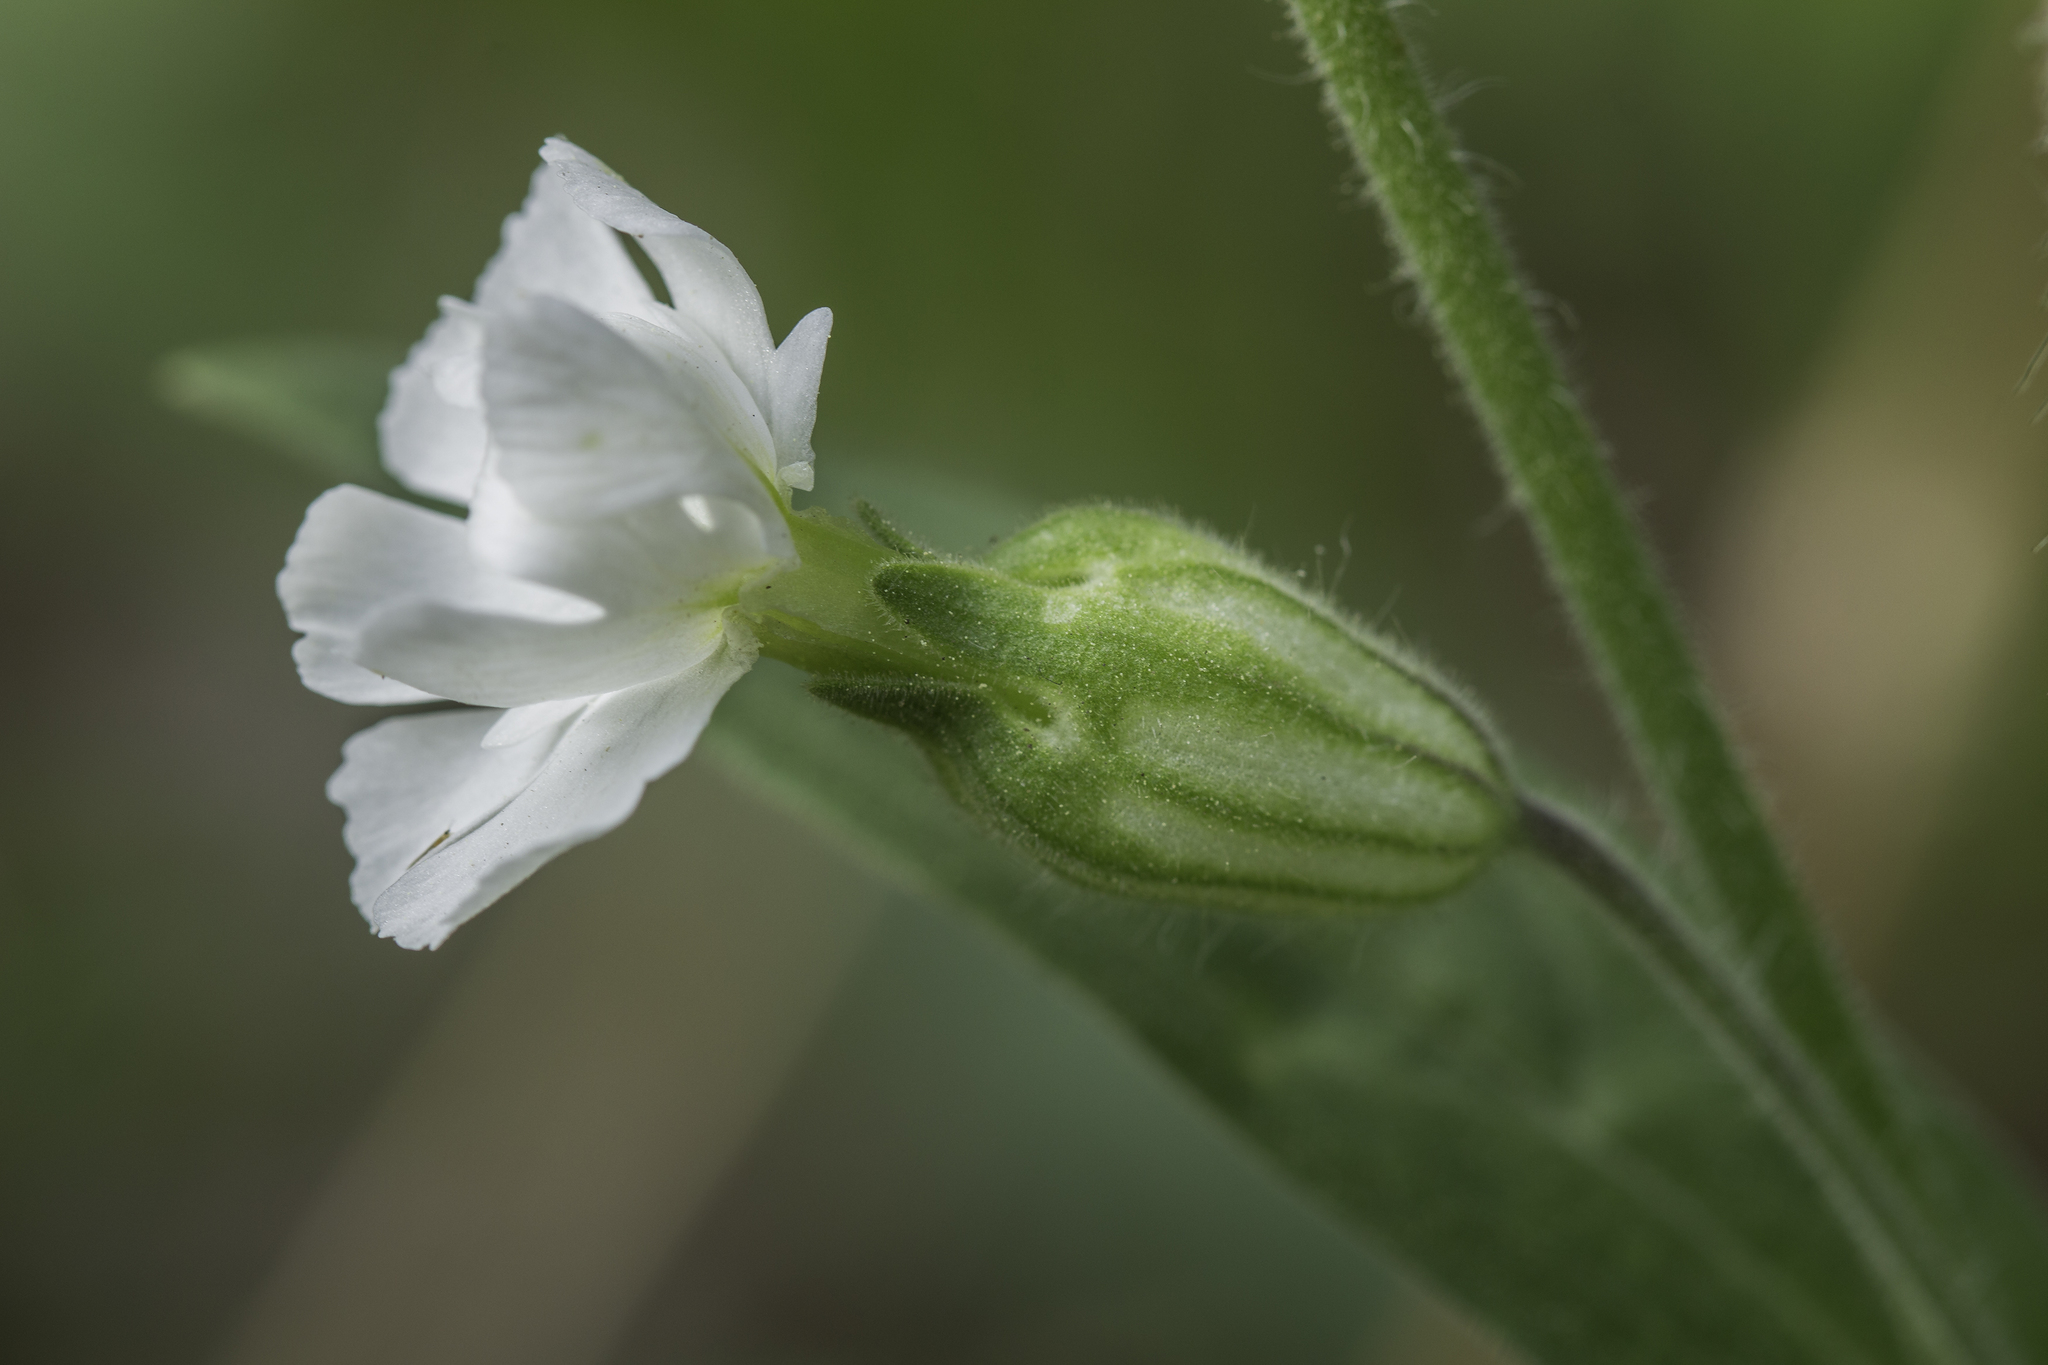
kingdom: Plantae
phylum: Tracheophyta
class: Magnoliopsida
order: Caryophyllales
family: Caryophyllaceae
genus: Silene
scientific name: Silene latifolia
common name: White campion
